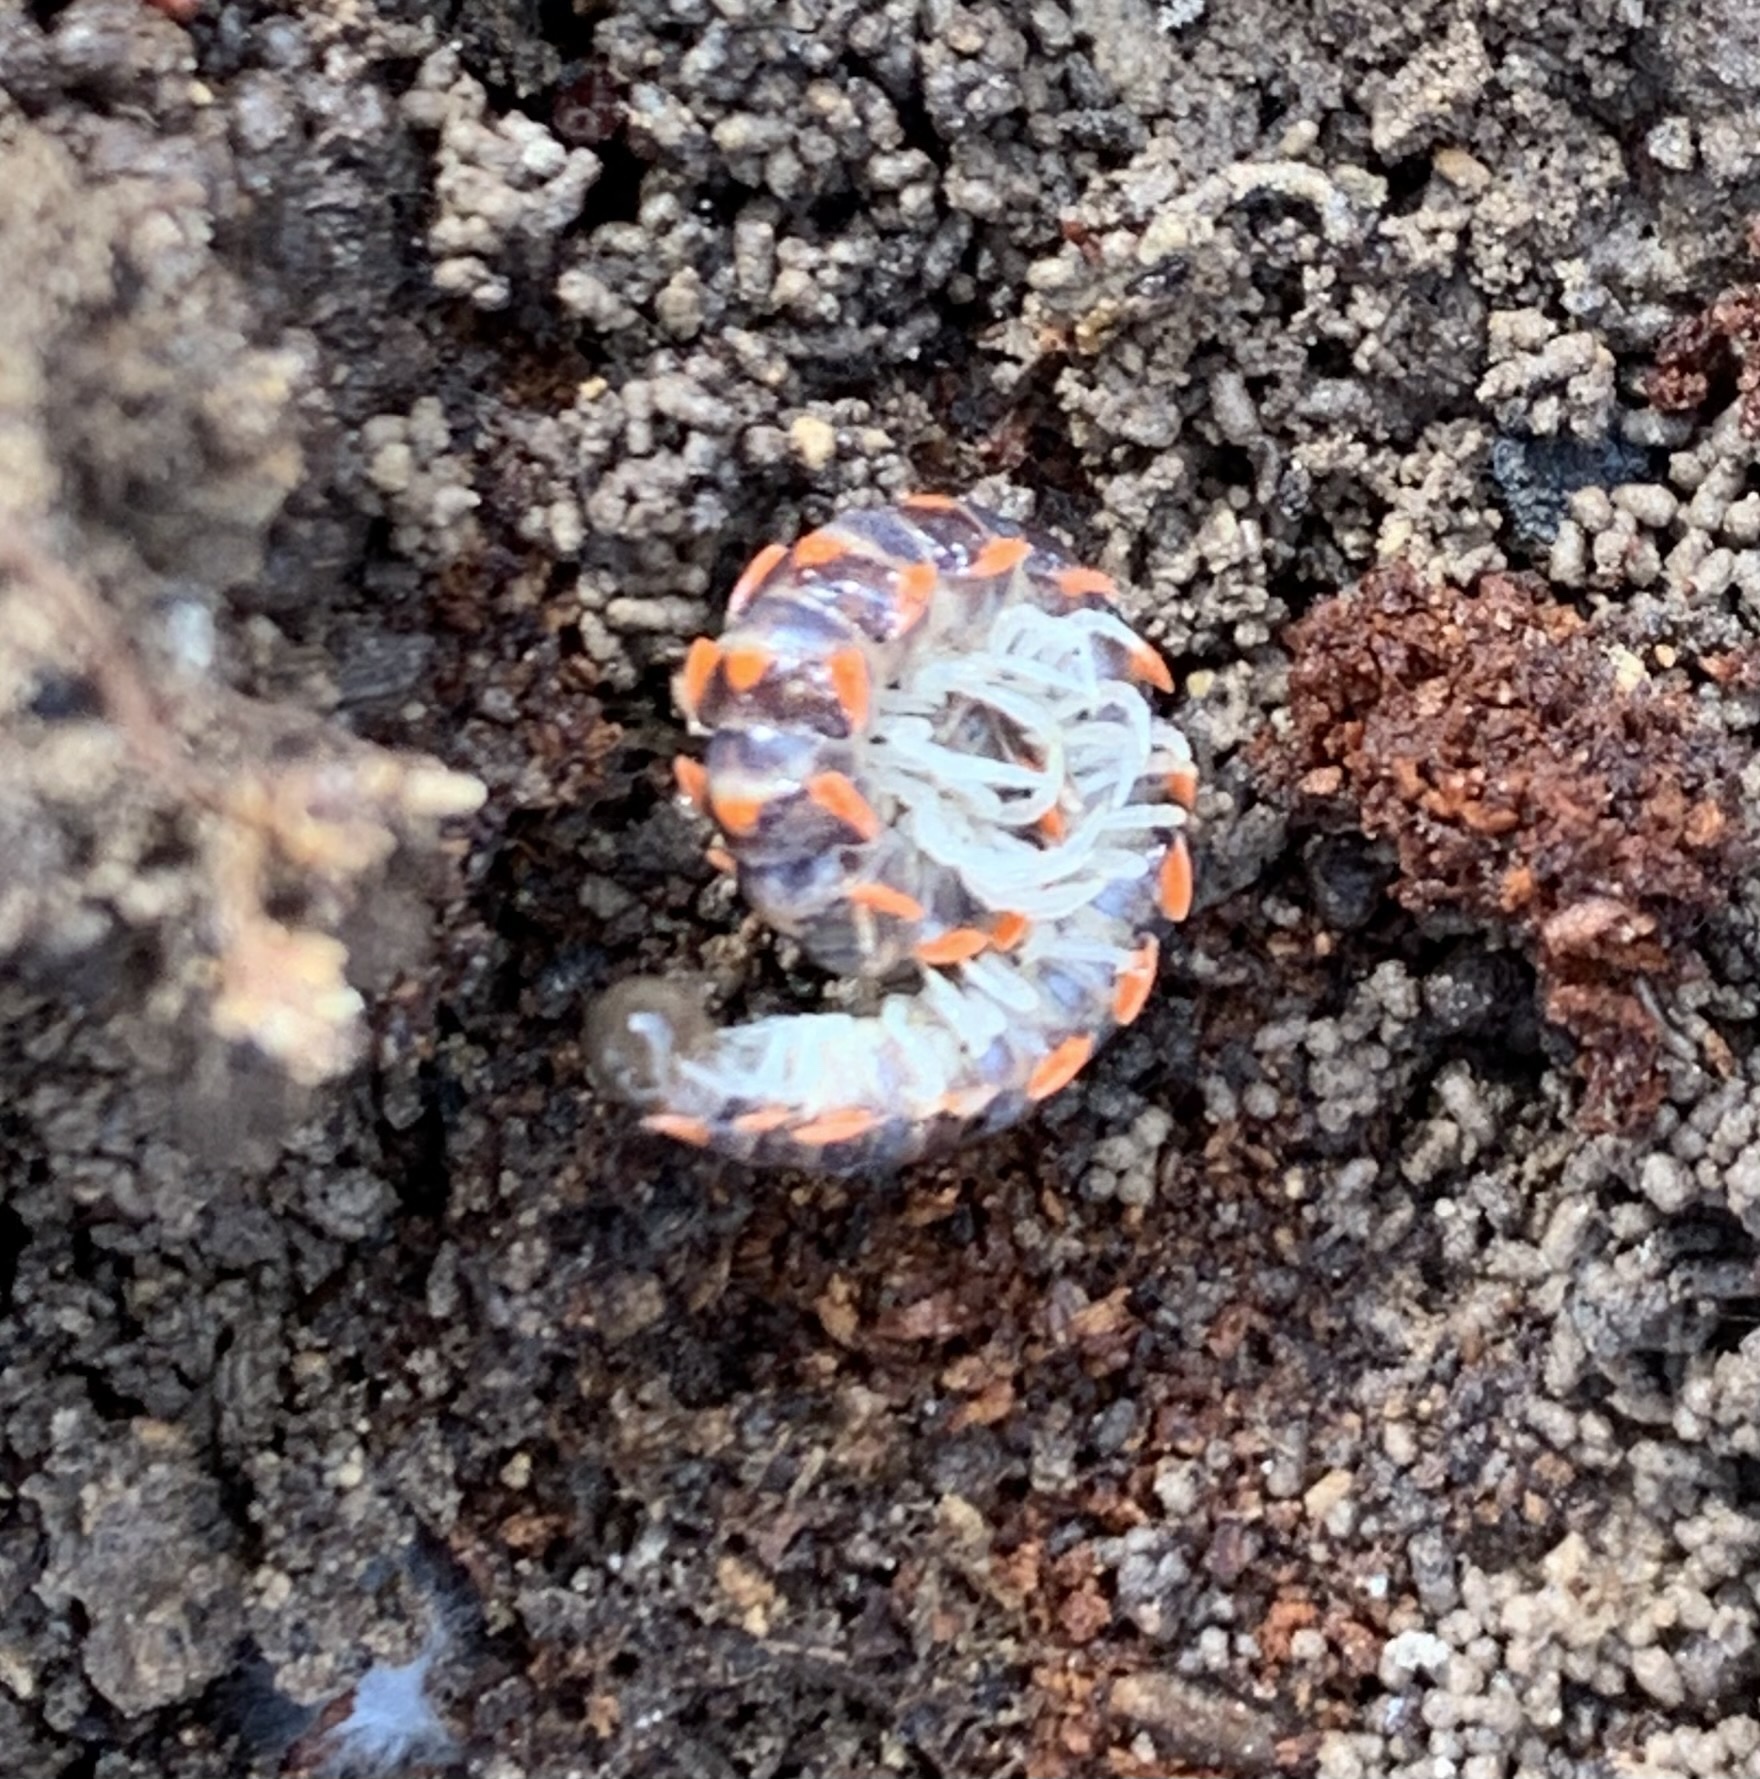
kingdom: Animalia
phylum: Arthropoda
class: Diplopoda
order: Polydesmida
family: Xystodesmidae
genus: Euryurus
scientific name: Euryurus carolinensis
